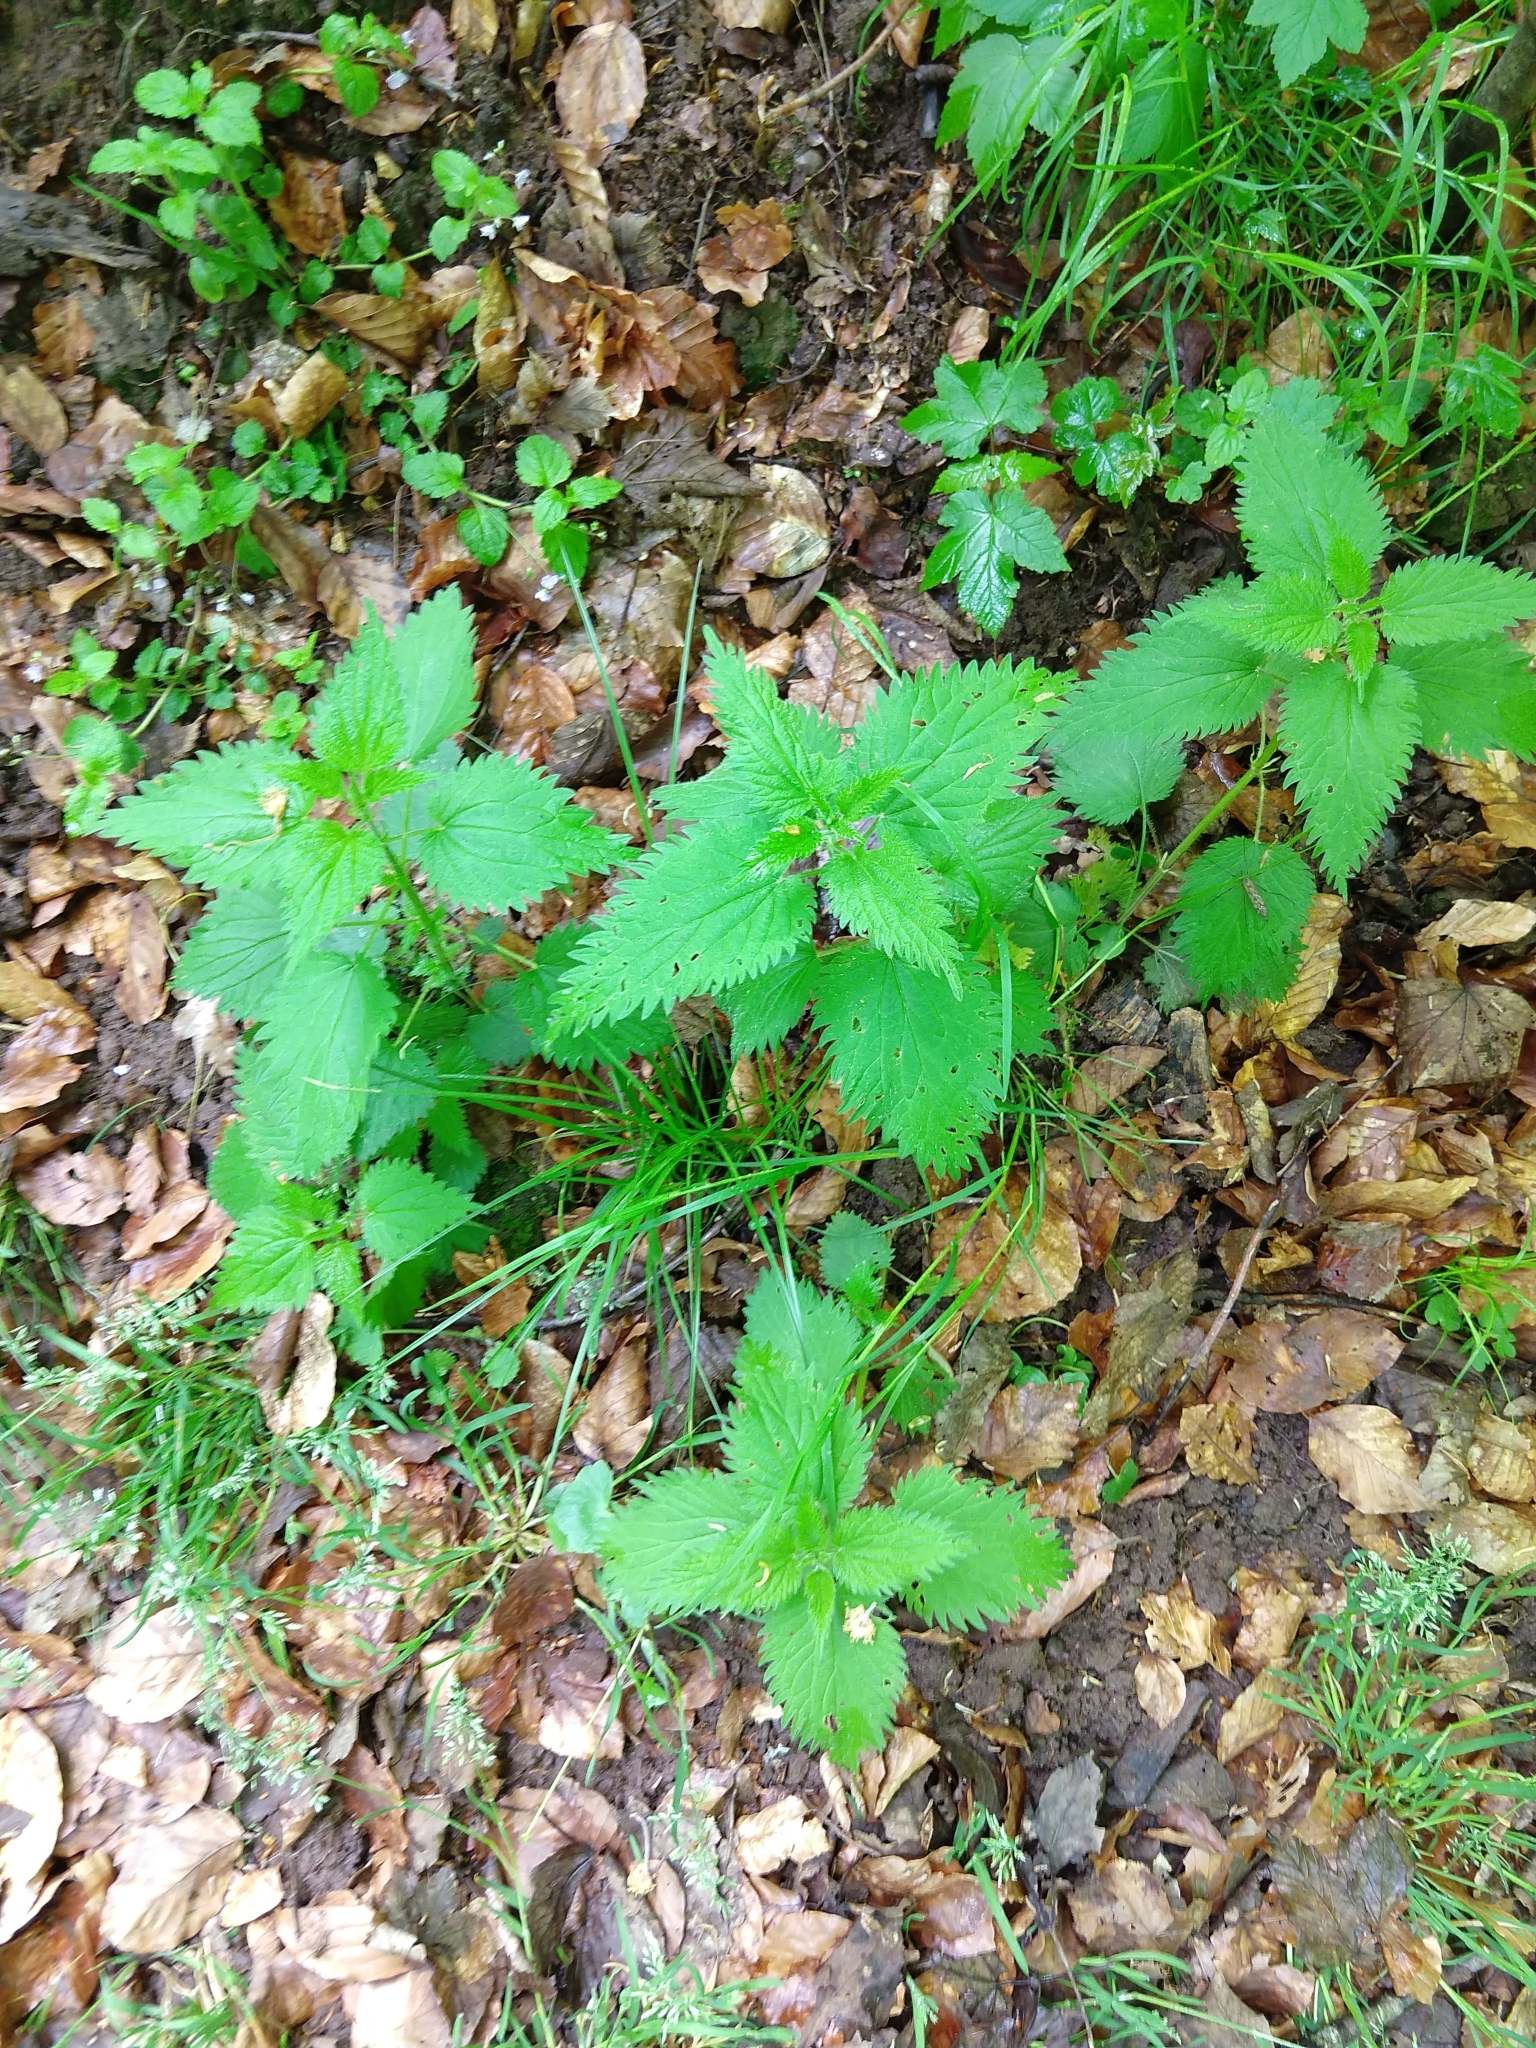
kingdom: Plantae
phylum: Tracheophyta
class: Magnoliopsida
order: Rosales
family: Urticaceae
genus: Urtica
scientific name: Urtica dioica
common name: Common nettle
